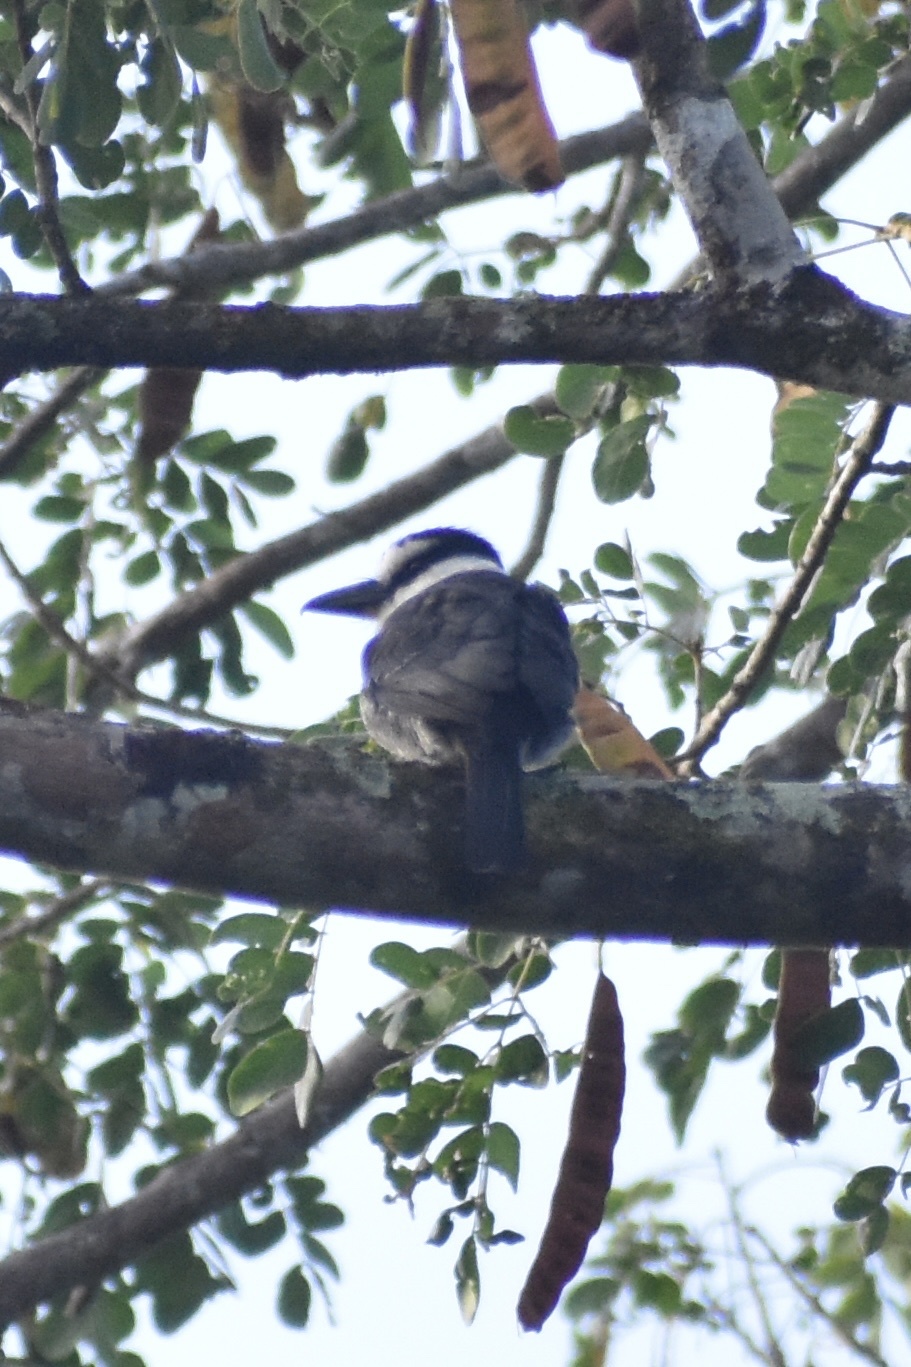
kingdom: Animalia
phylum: Chordata
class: Aves
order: Piciformes
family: Bucconidae
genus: Notharchus
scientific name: Notharchus hyperrhynchus
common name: White-necked puffbird
